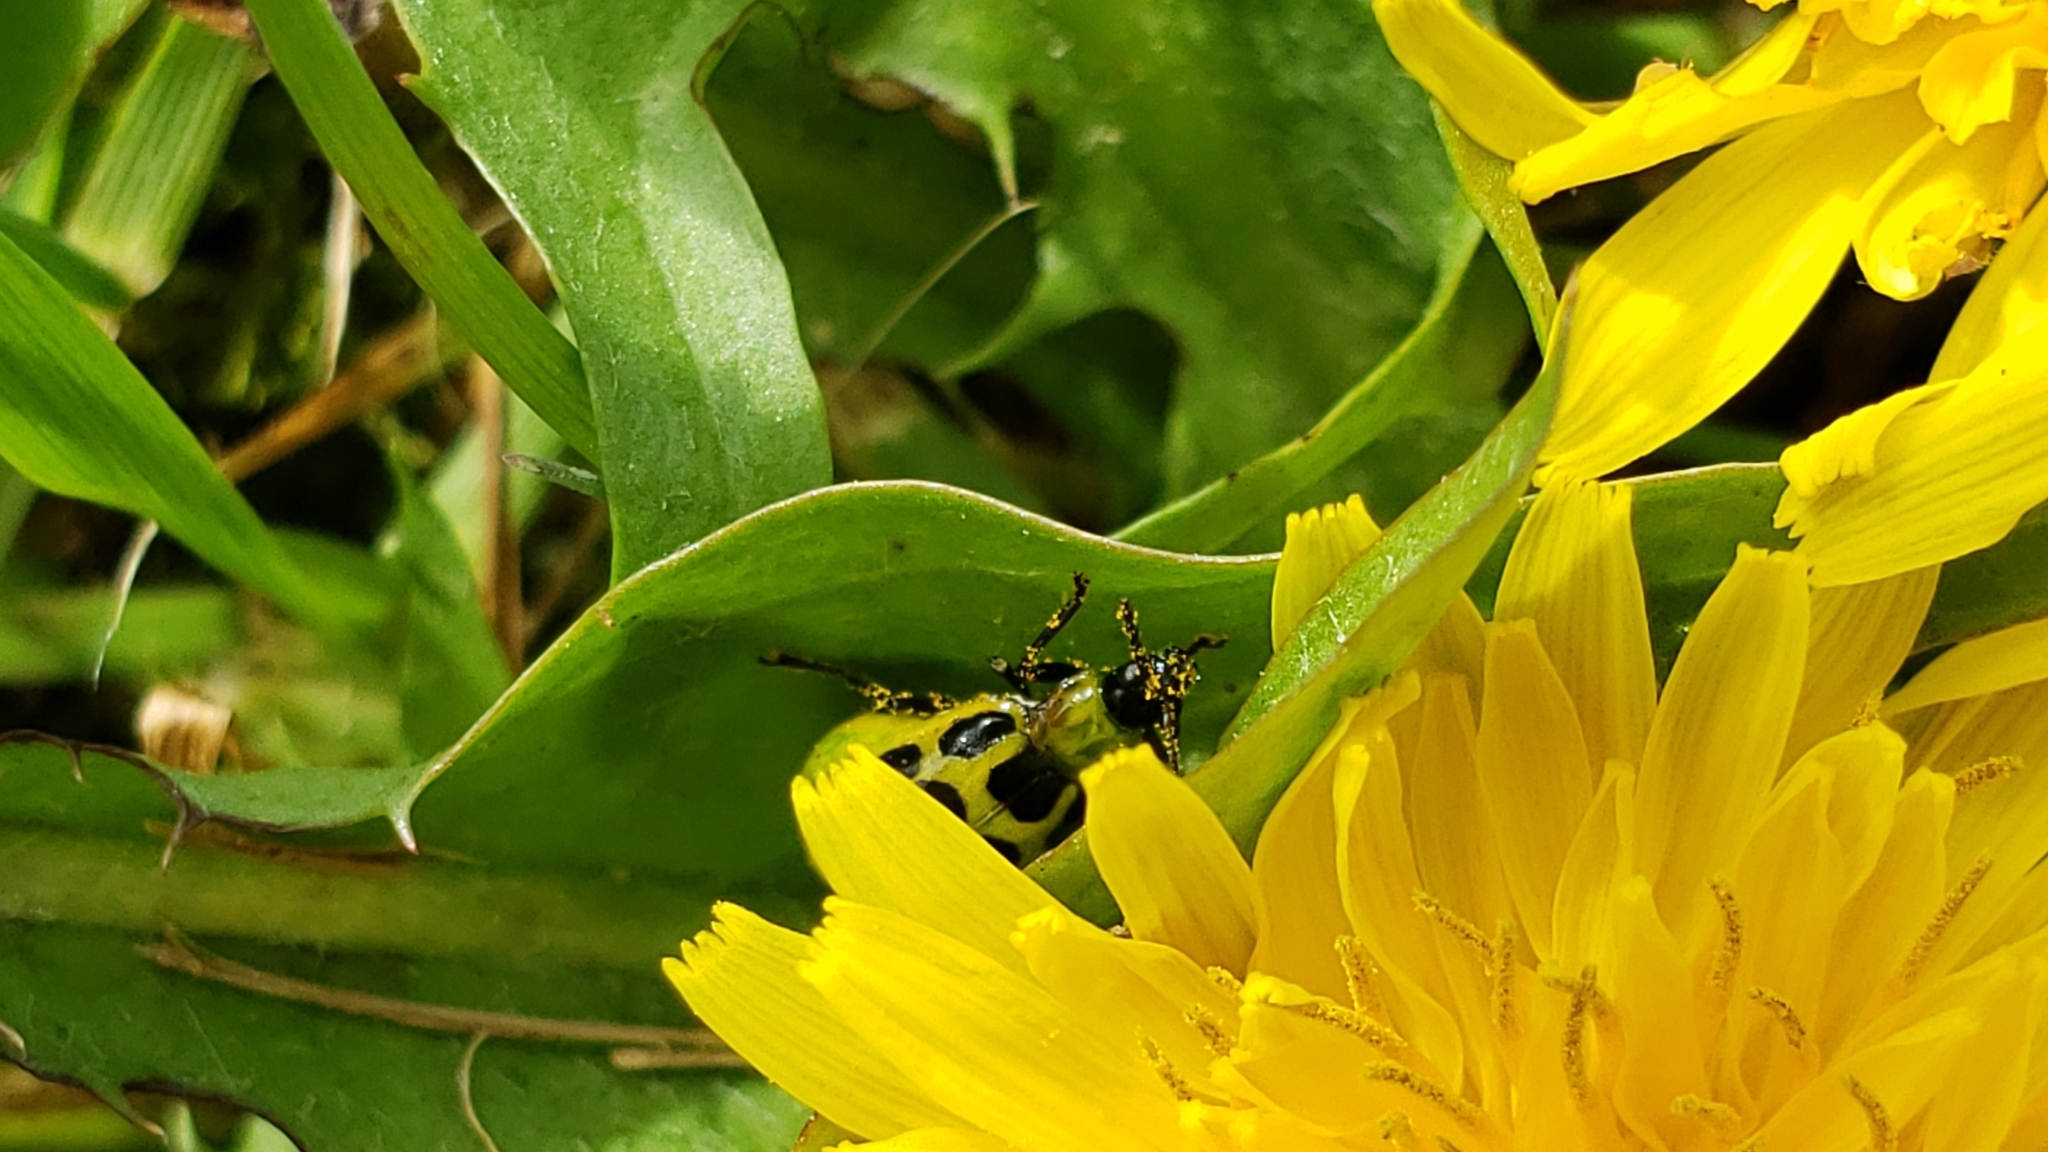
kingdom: Animalia
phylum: Arthropoda
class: Insecta
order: Coleoptera
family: Chrysomelidae
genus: Diabrotica
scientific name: Diabrotica undecimpunctata
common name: Spotted cucumber beetle
